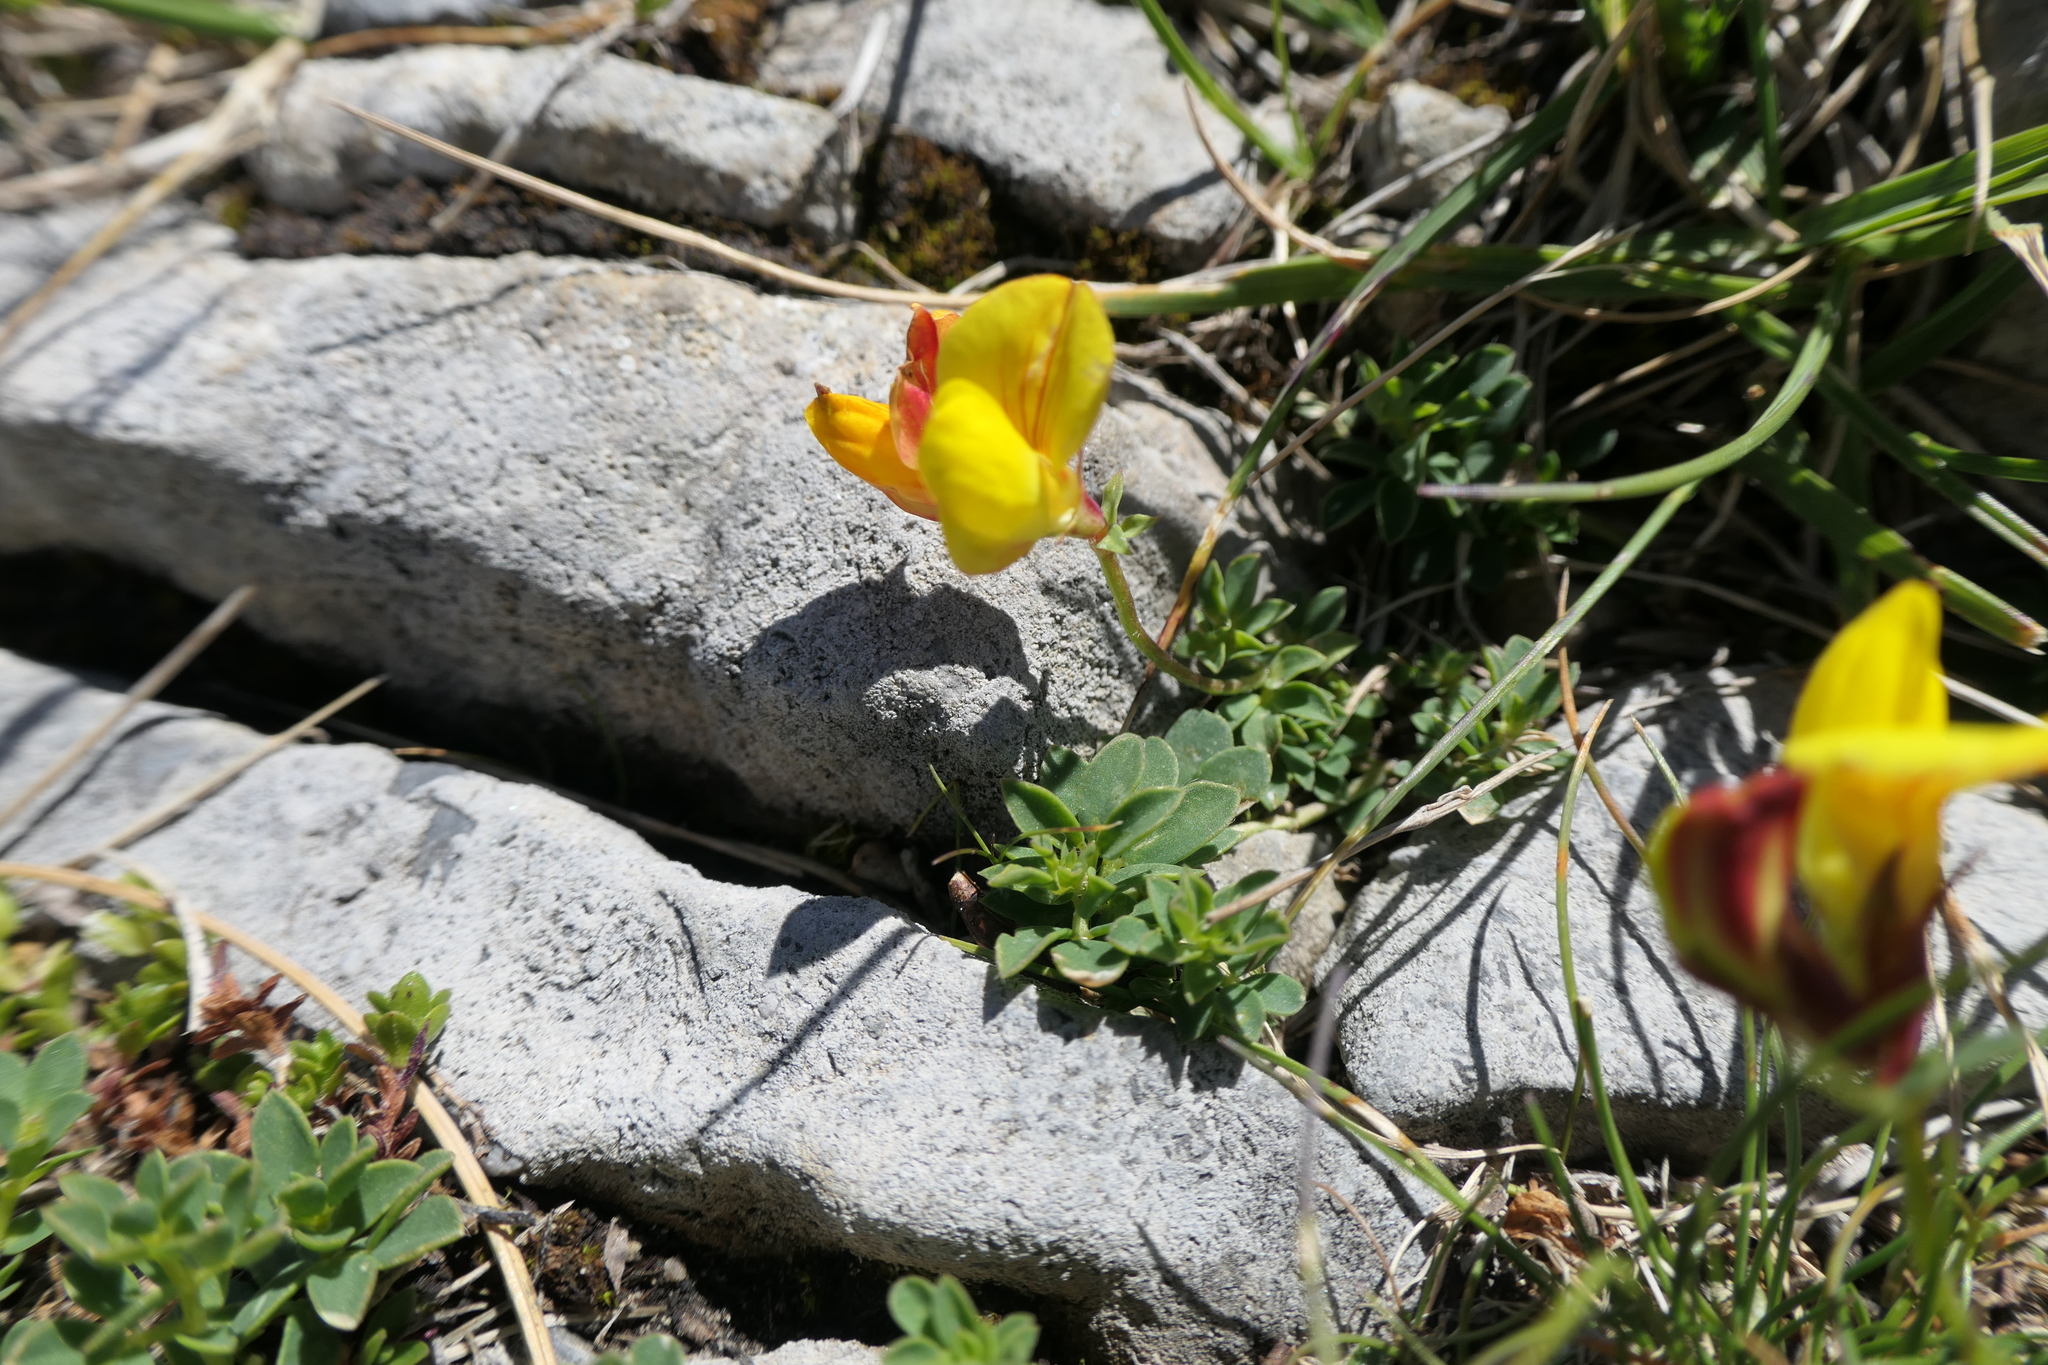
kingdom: Plantae
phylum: Tracheophyta
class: Magnoliopsida
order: Fabales
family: Fabaceae
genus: Lotus
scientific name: Lotus alpinus
